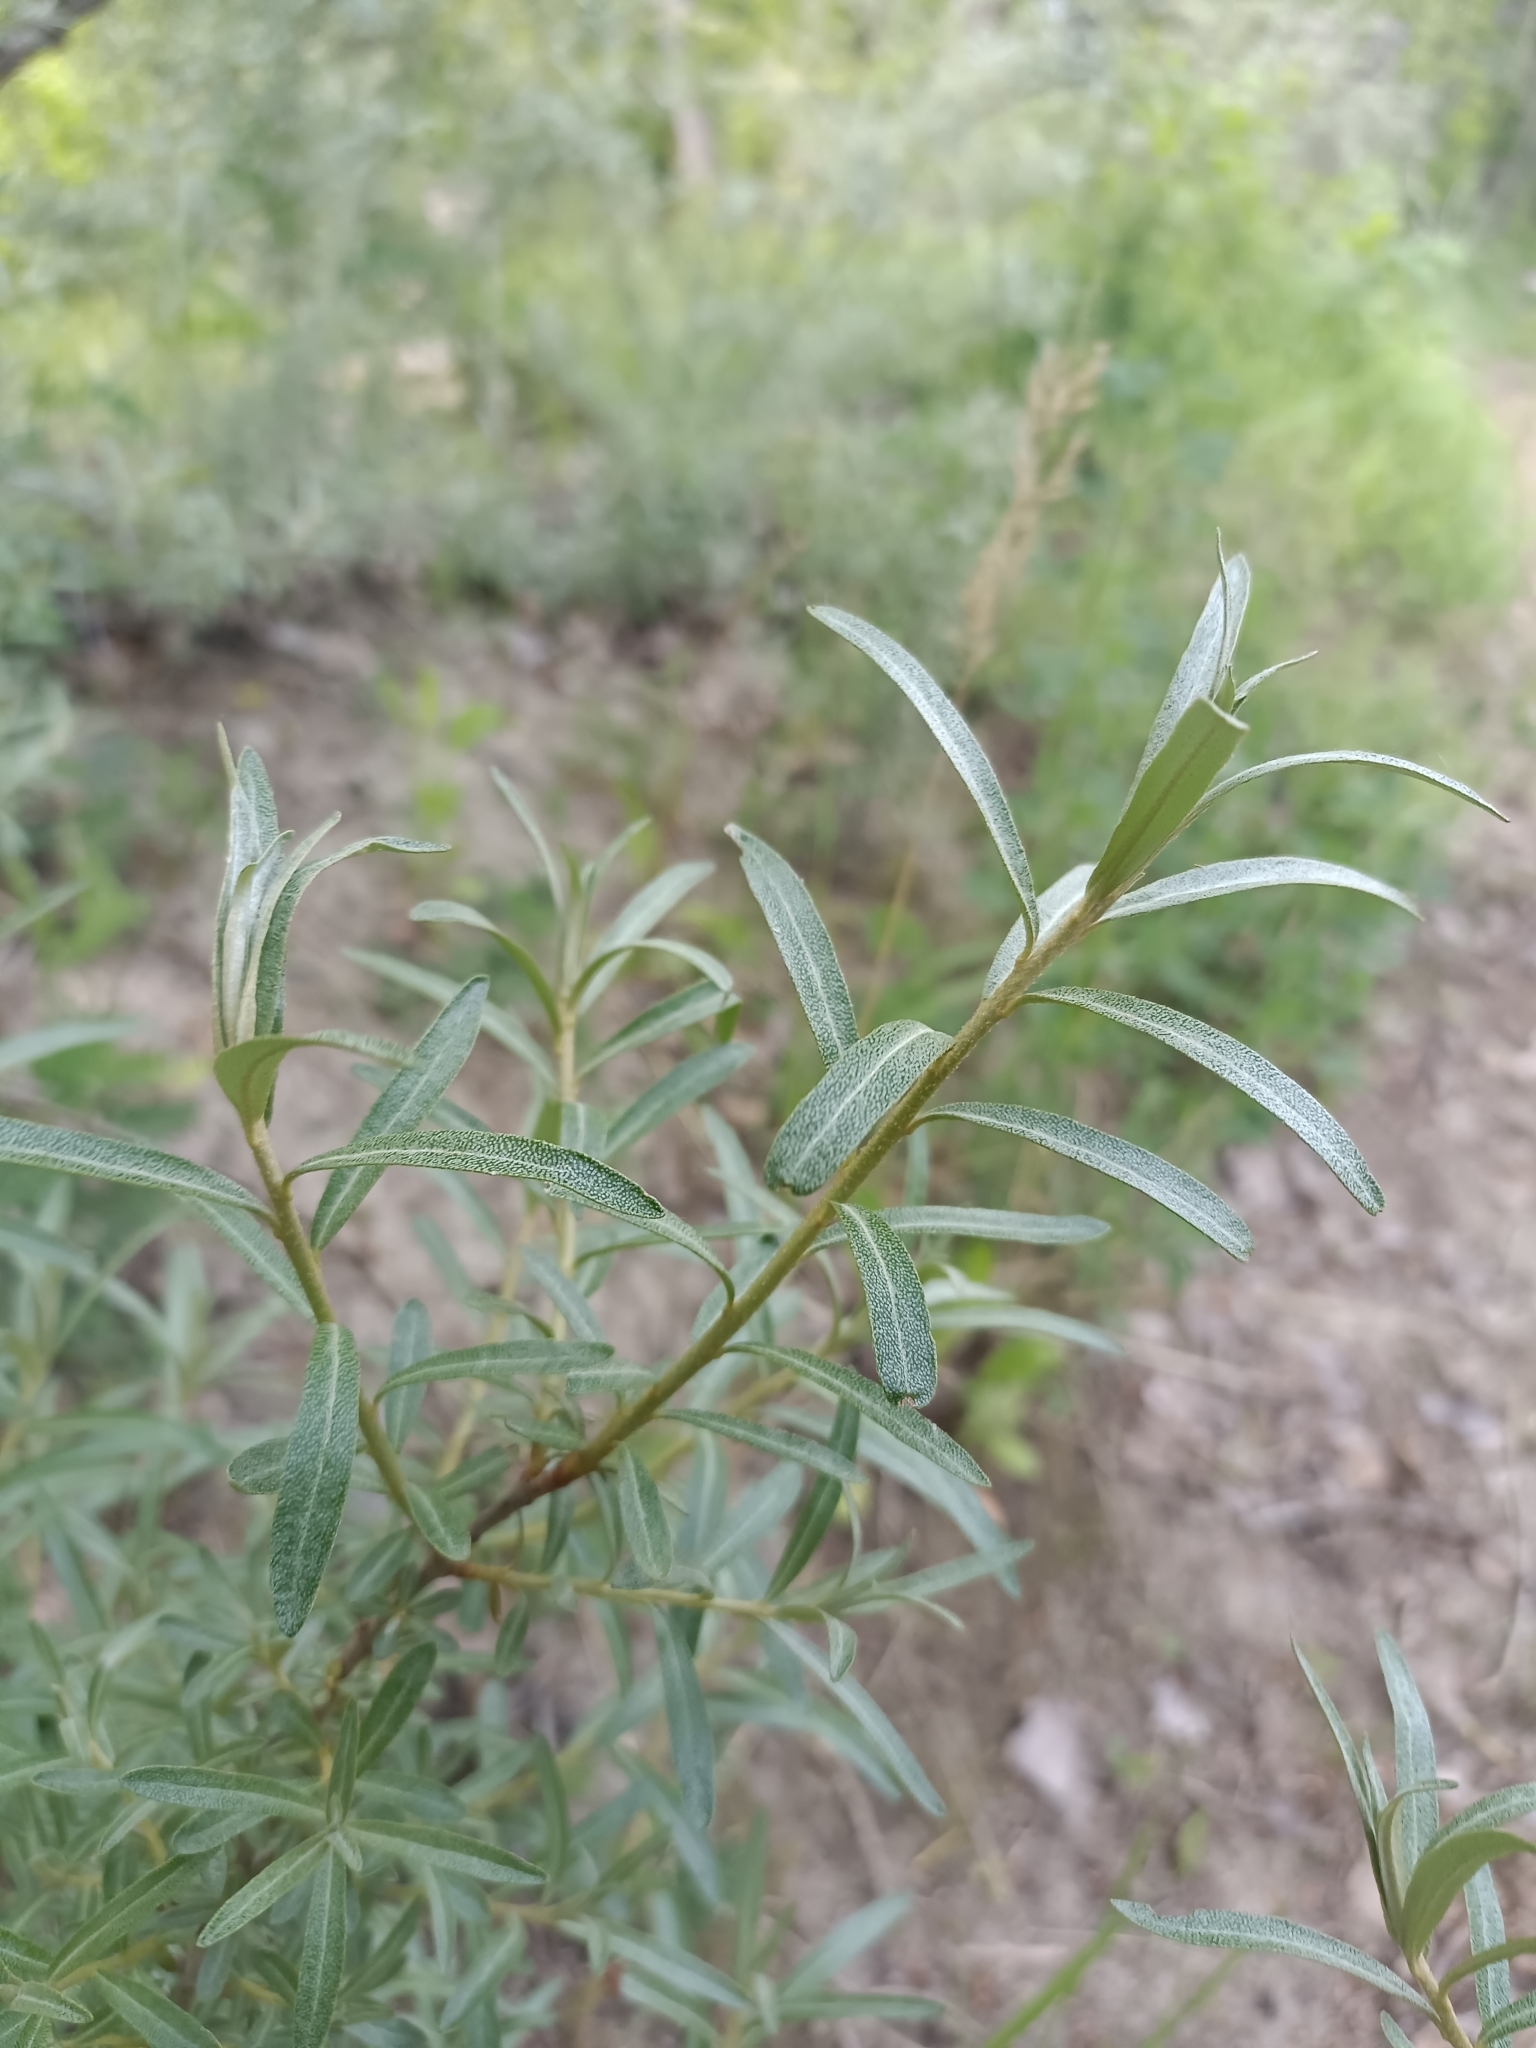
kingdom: Plantae
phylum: Tracheophyta
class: Magnoliopsida
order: Rosales
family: Elaeagnaceae
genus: Hippophae
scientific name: Hippophae rhamnoides
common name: Sea-buckthorn
